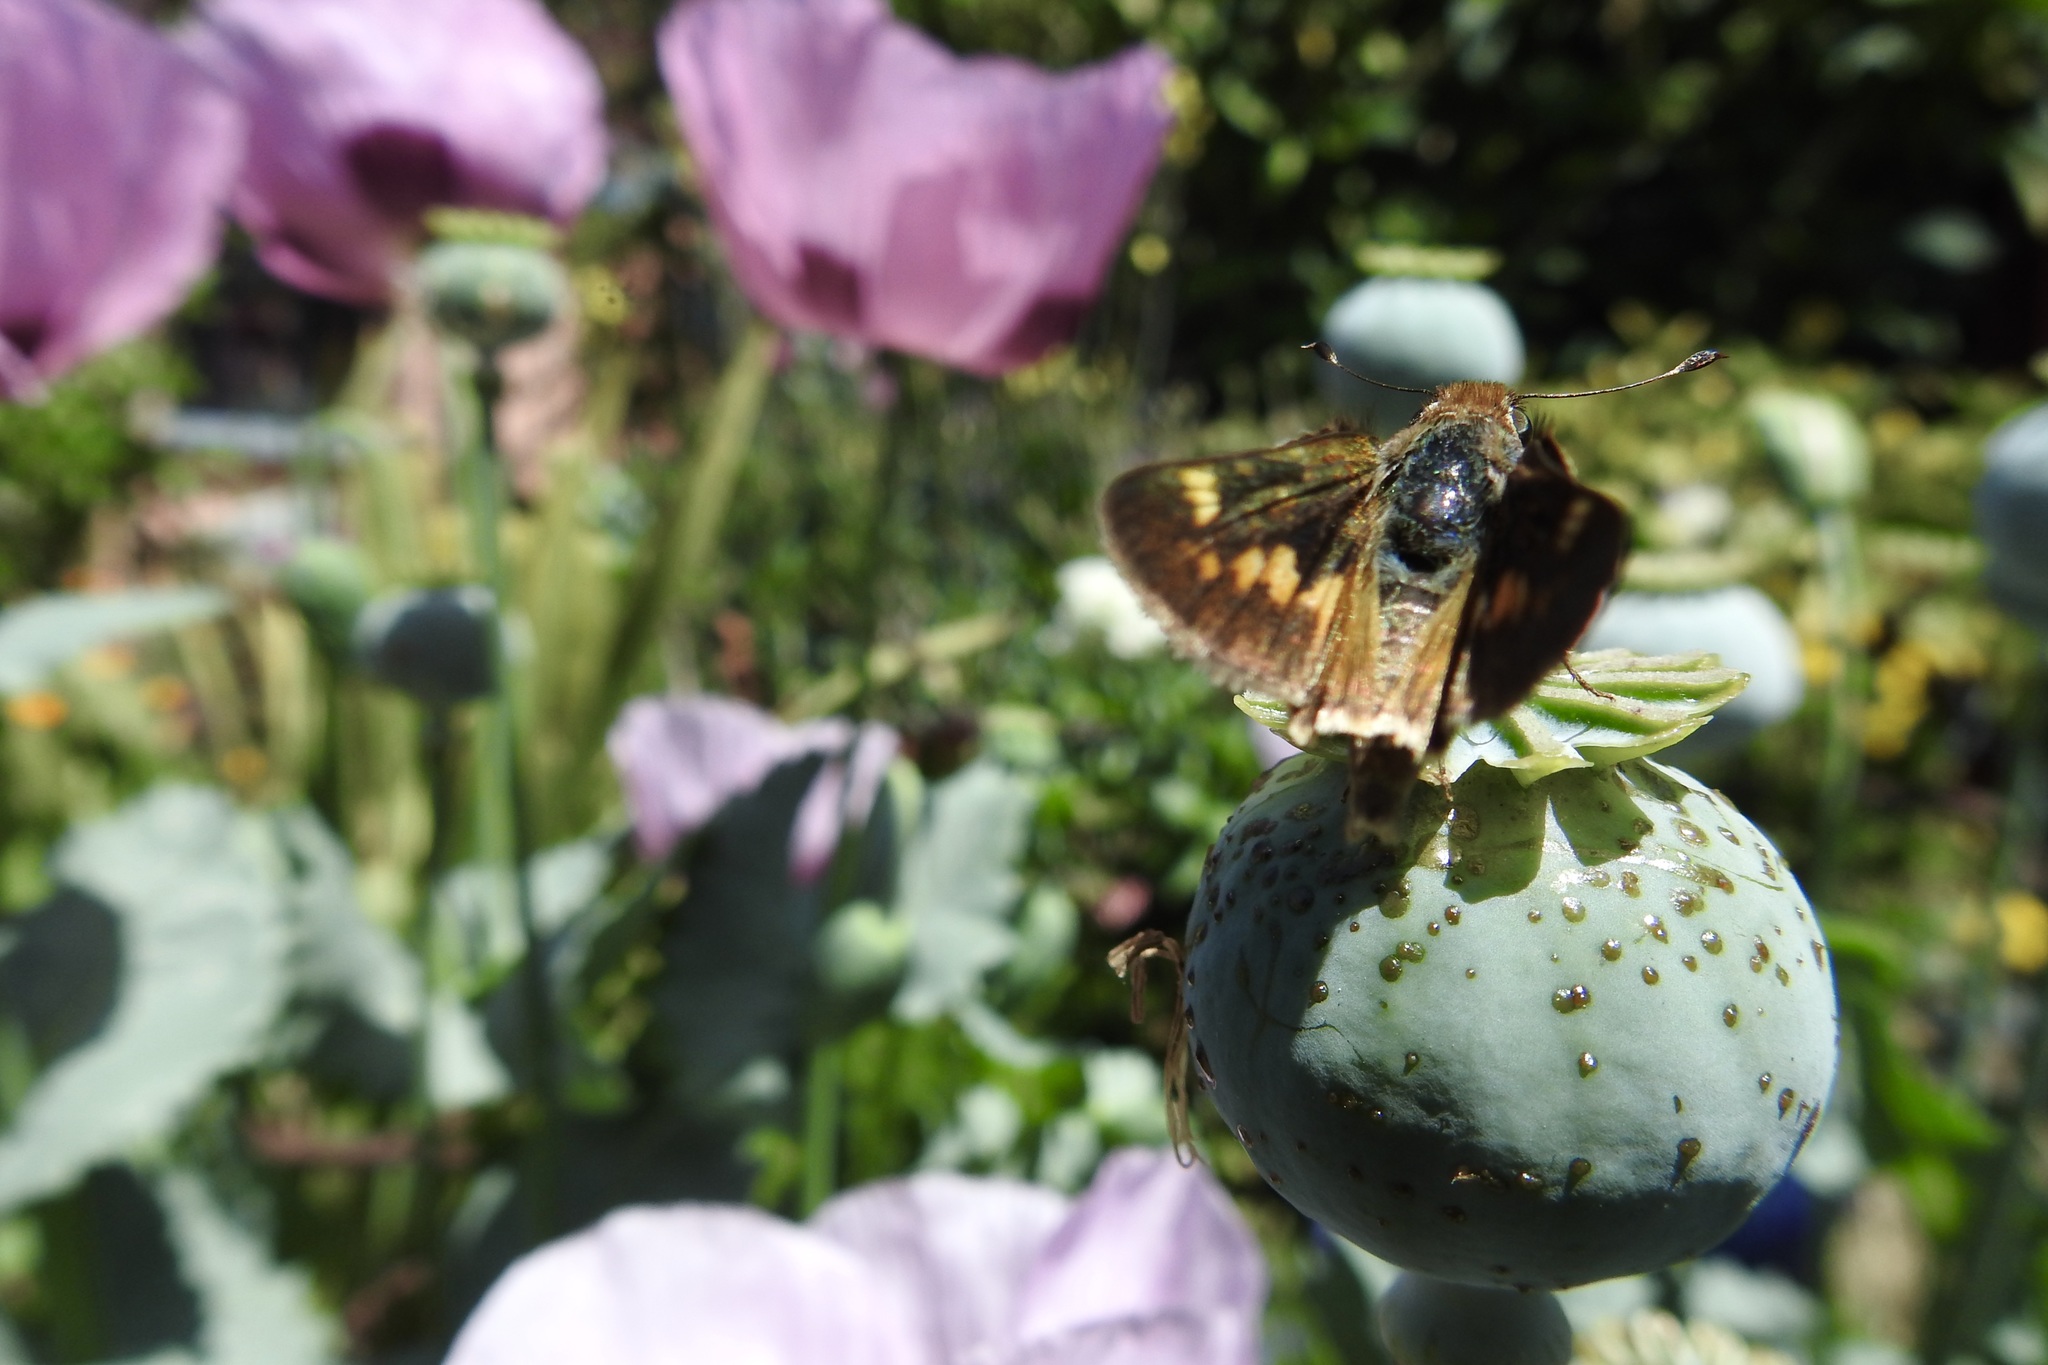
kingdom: Animalia
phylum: Arthropoda
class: Insecta
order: Lepidoptera
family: Hesperiidae
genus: Lon
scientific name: Lon melane
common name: Umber skipper
